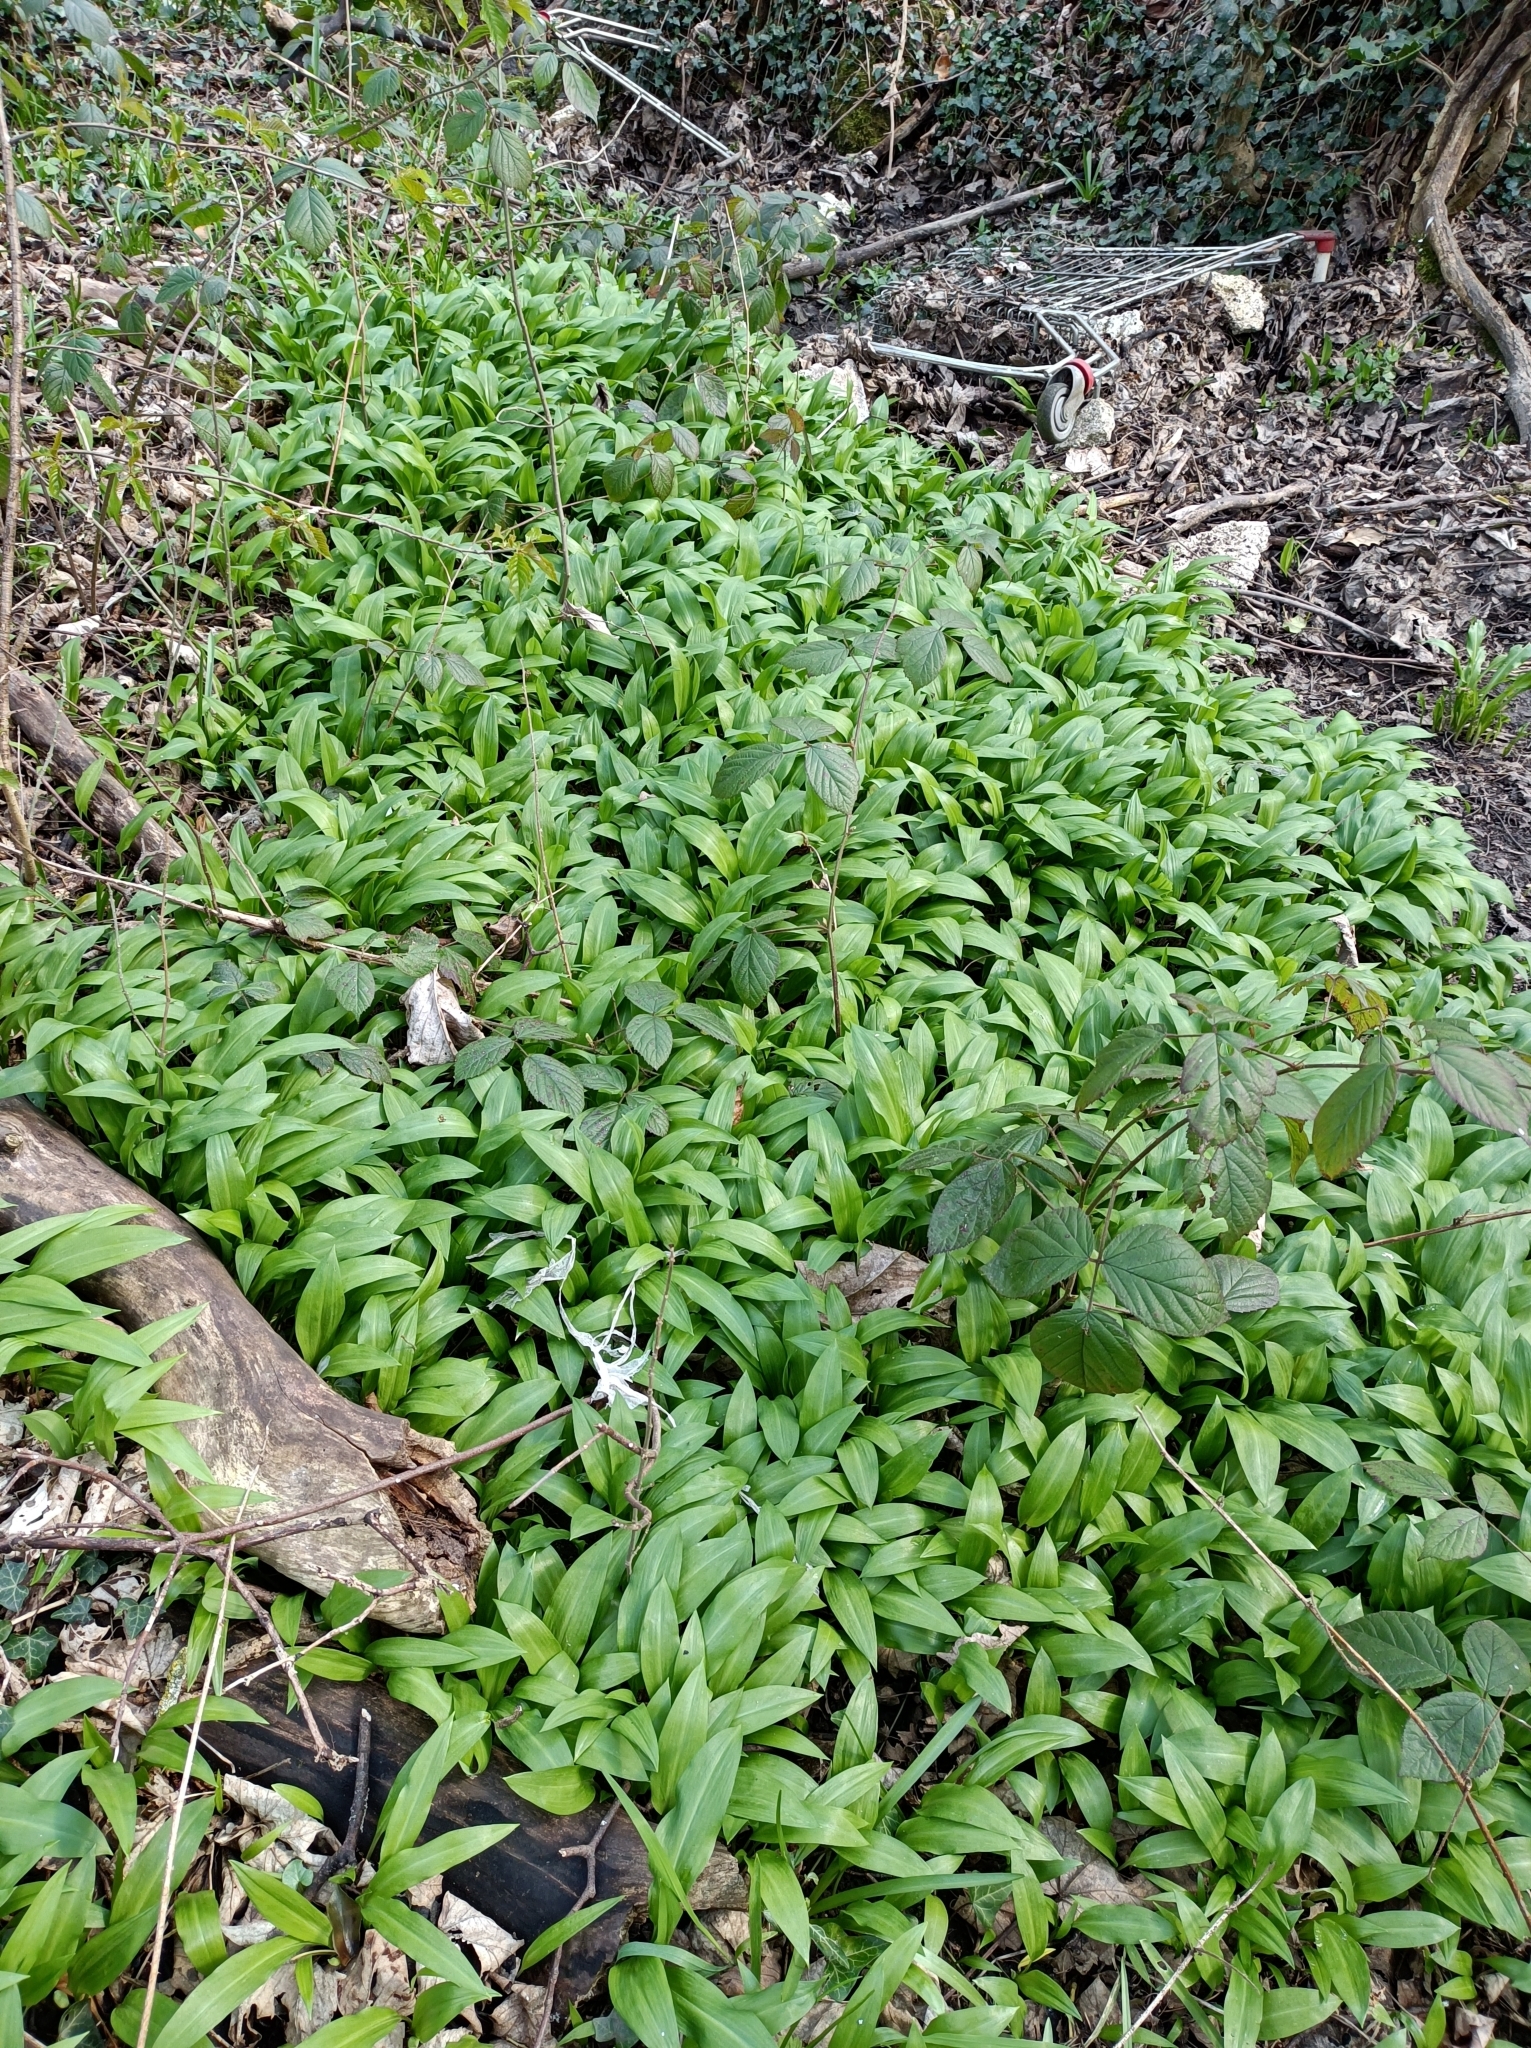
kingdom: Plantae
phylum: Tracheophyta
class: Liliopsida
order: Asparagales
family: Amaryllidaceae
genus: Allium
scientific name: Allium ursinum
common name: Ramsons
